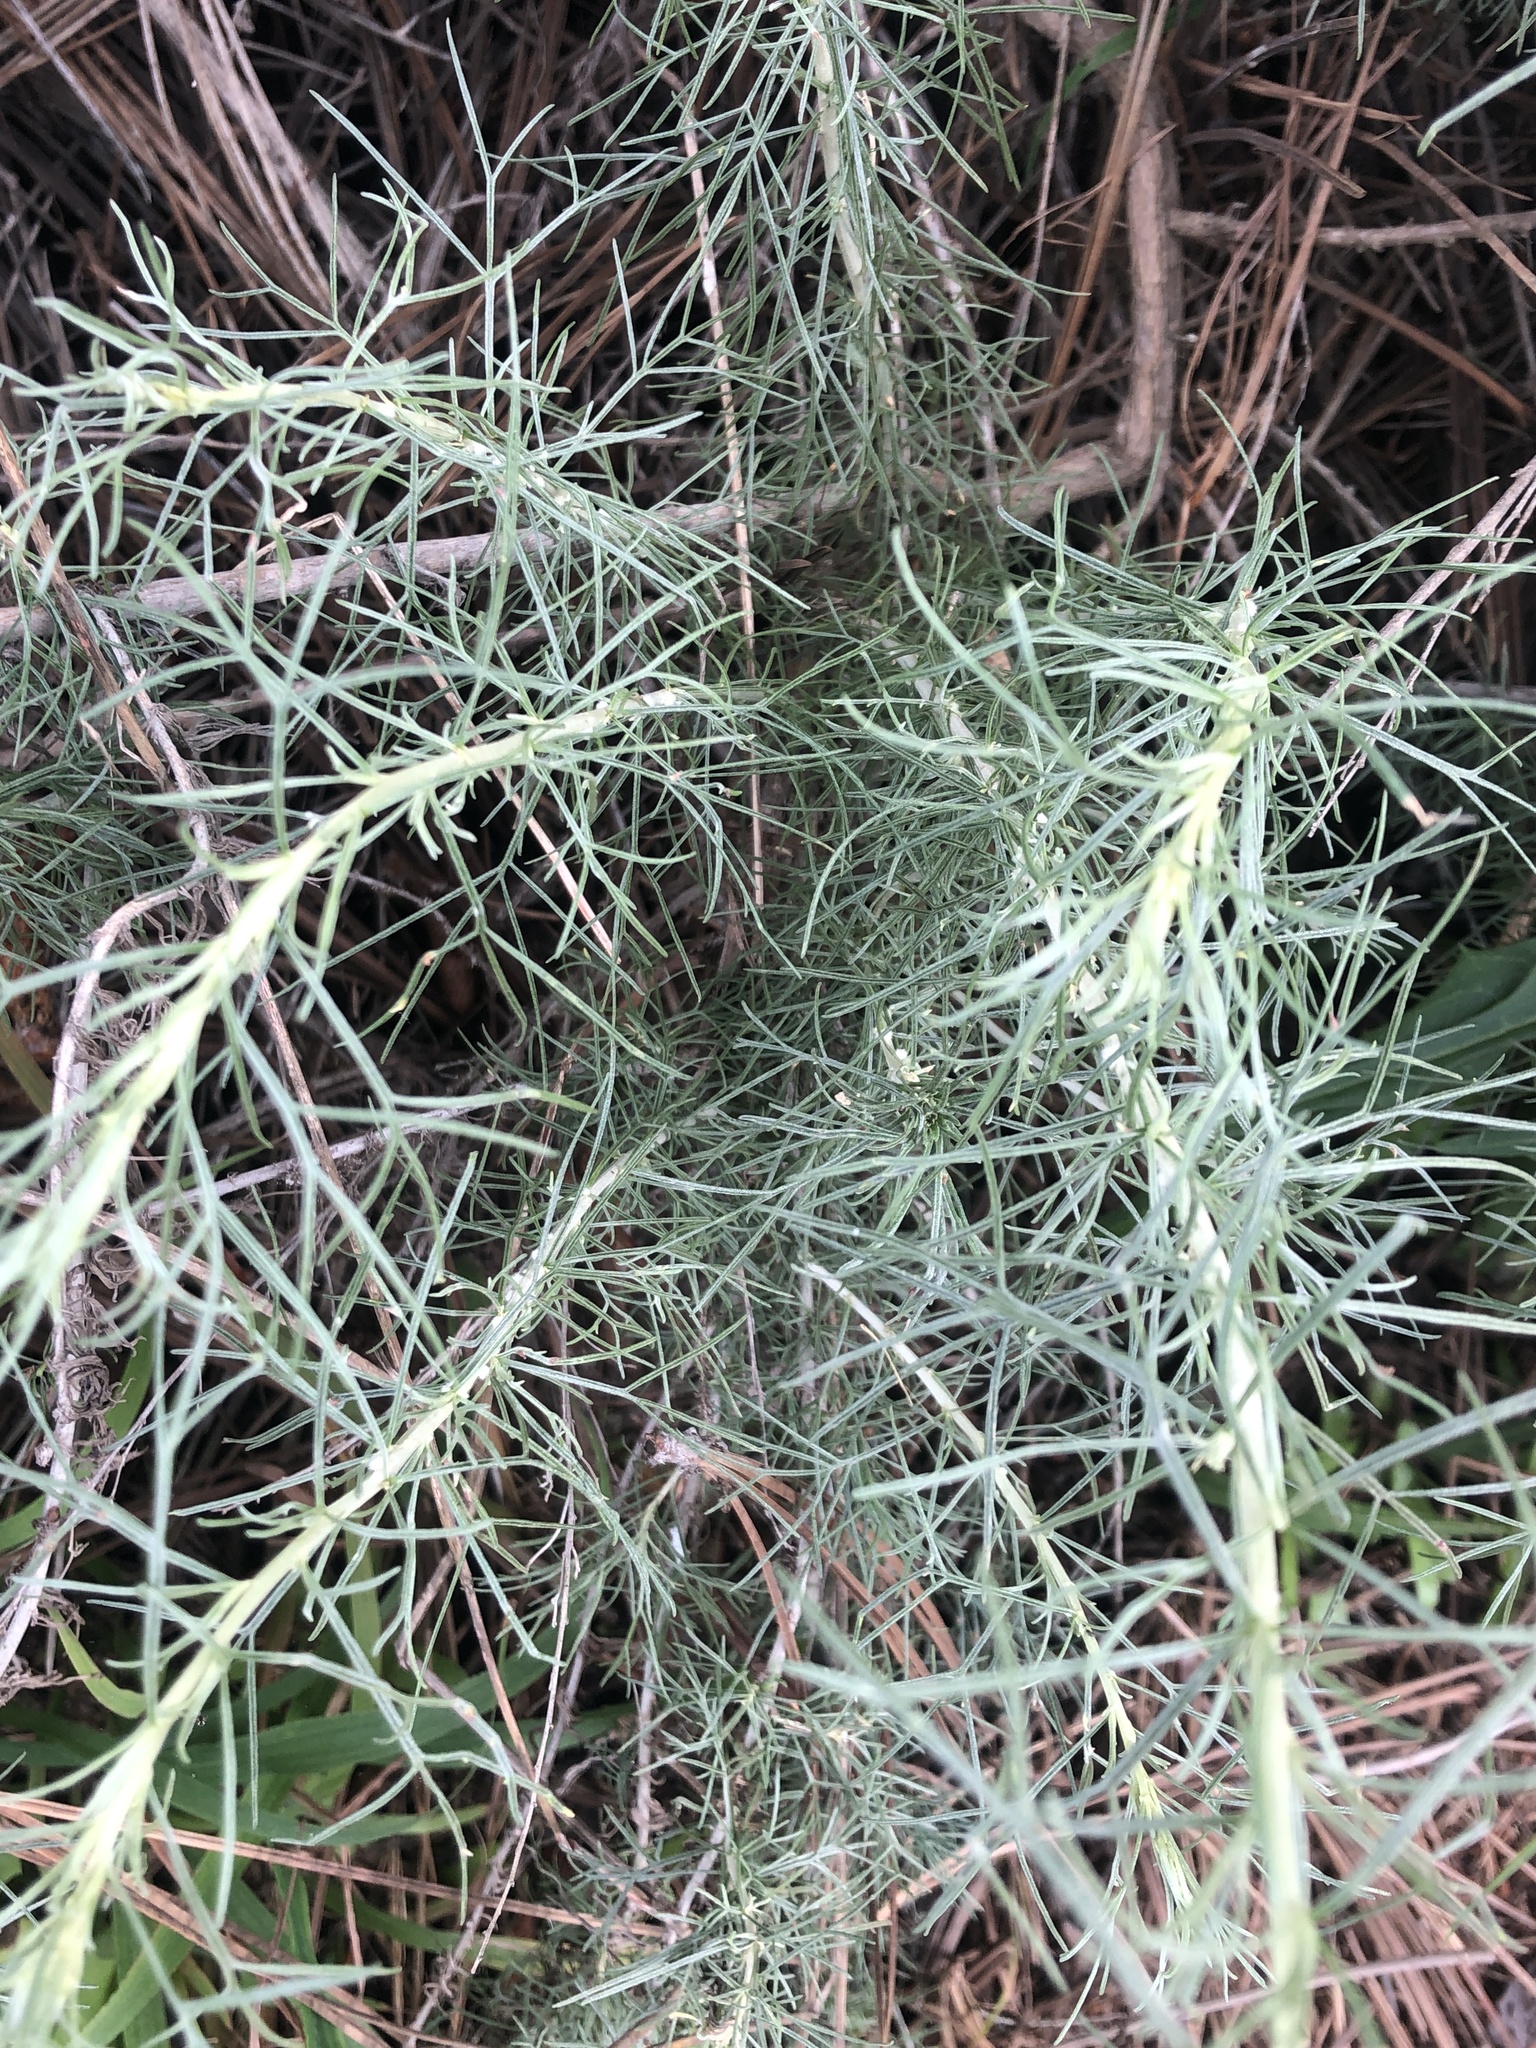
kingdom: Plantae
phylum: Tracheophyta
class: Magnoliopsida
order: Asterales
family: Asteraceae
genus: Artemisia
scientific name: Artemisia californica
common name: California sagebrush
